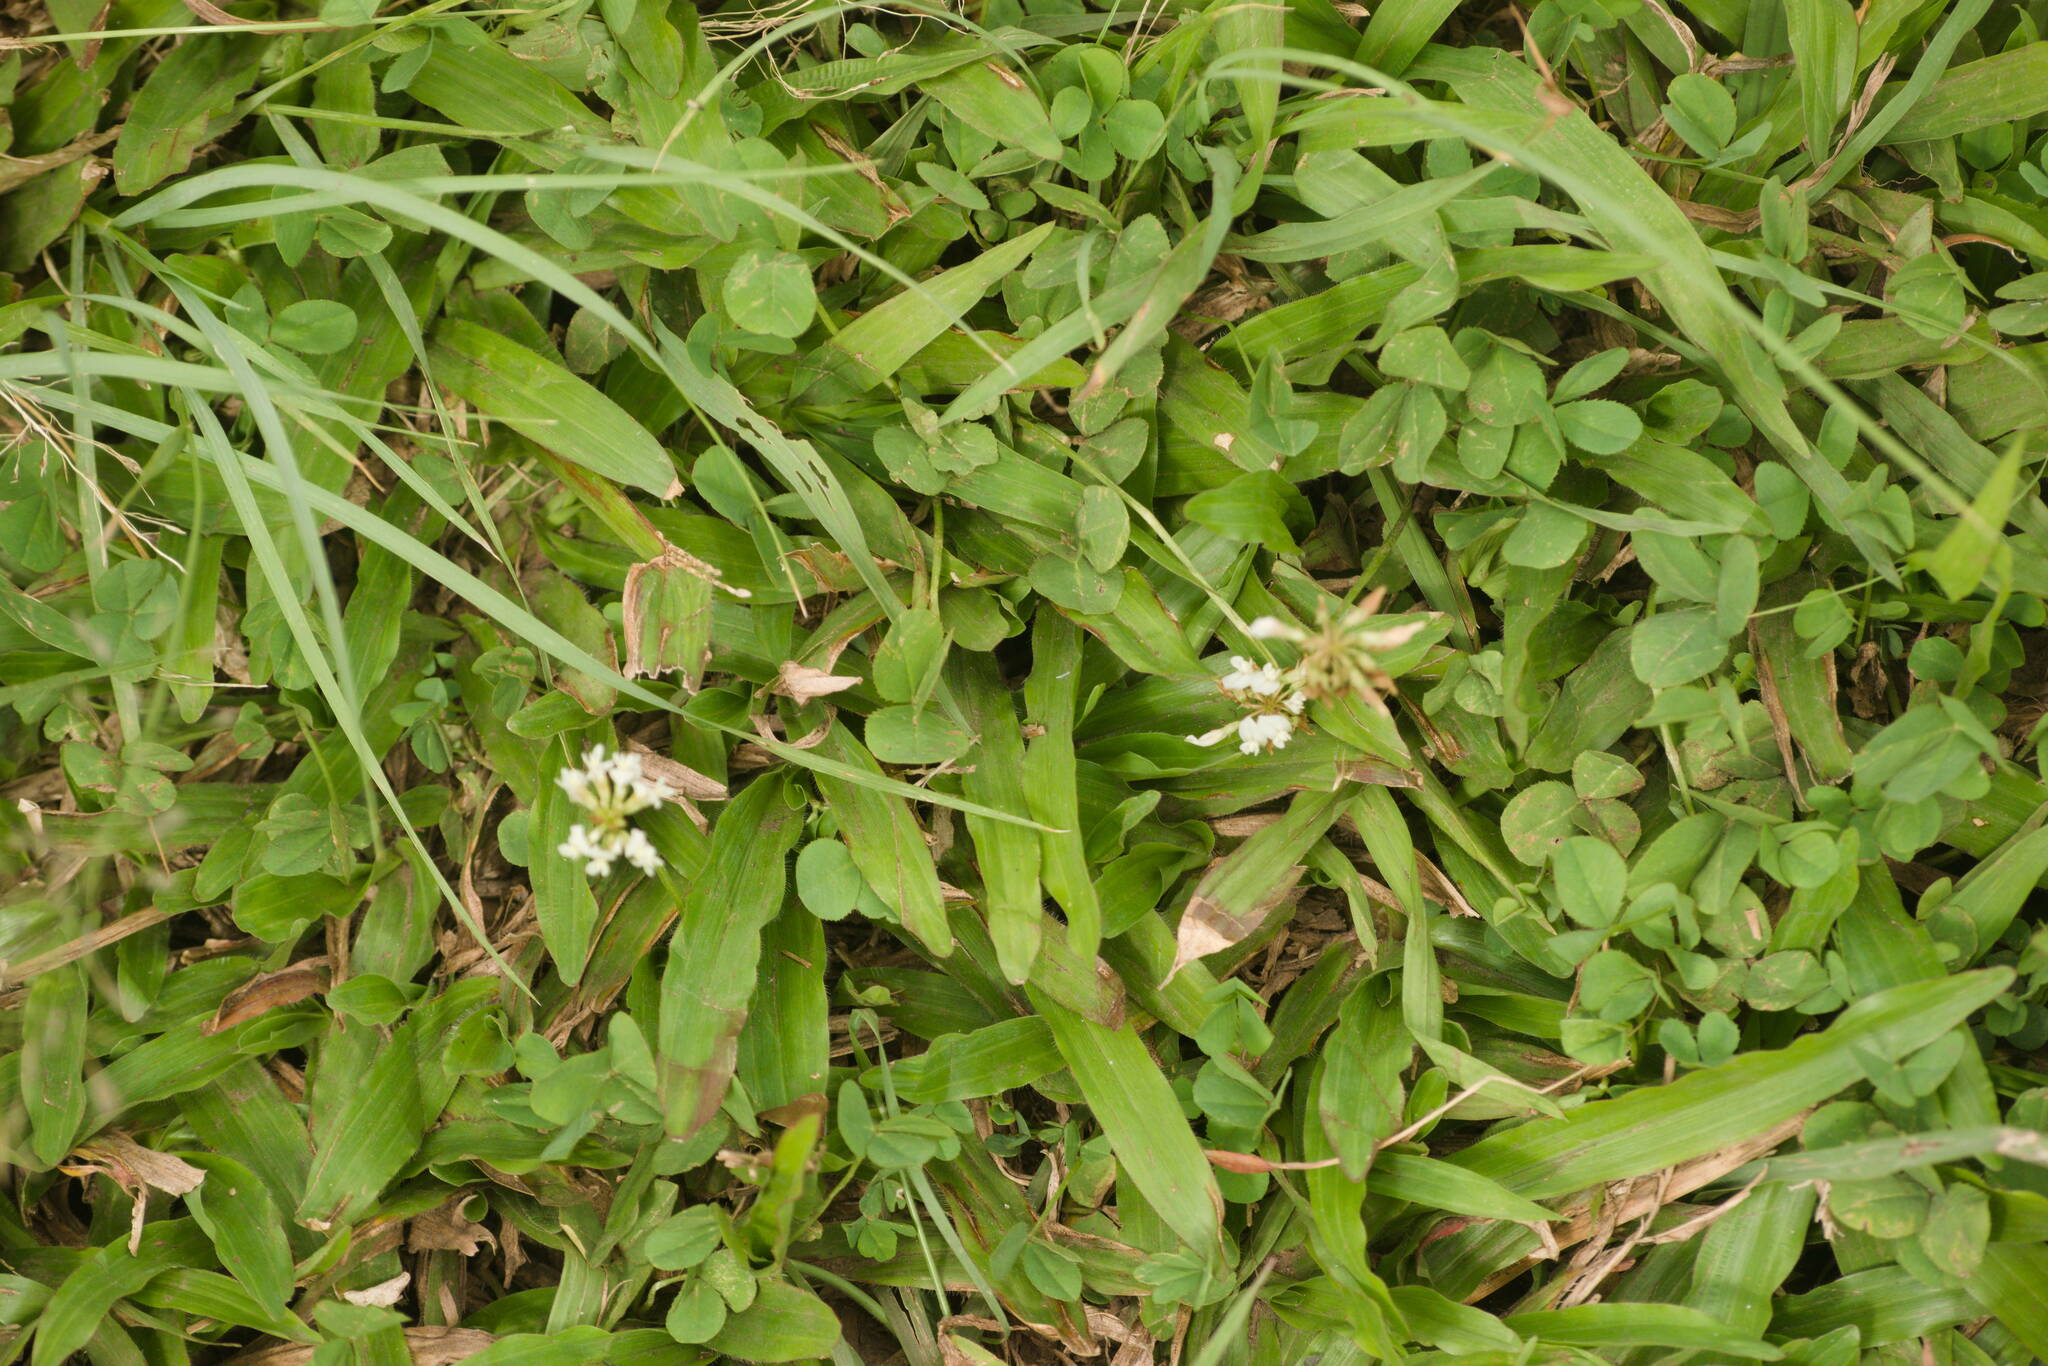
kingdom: Plantae
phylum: Tracheophyta
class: Magnoliopsida
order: Fabales
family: Fabaceae
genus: Trifolium
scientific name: Trifolium repens
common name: White clover
